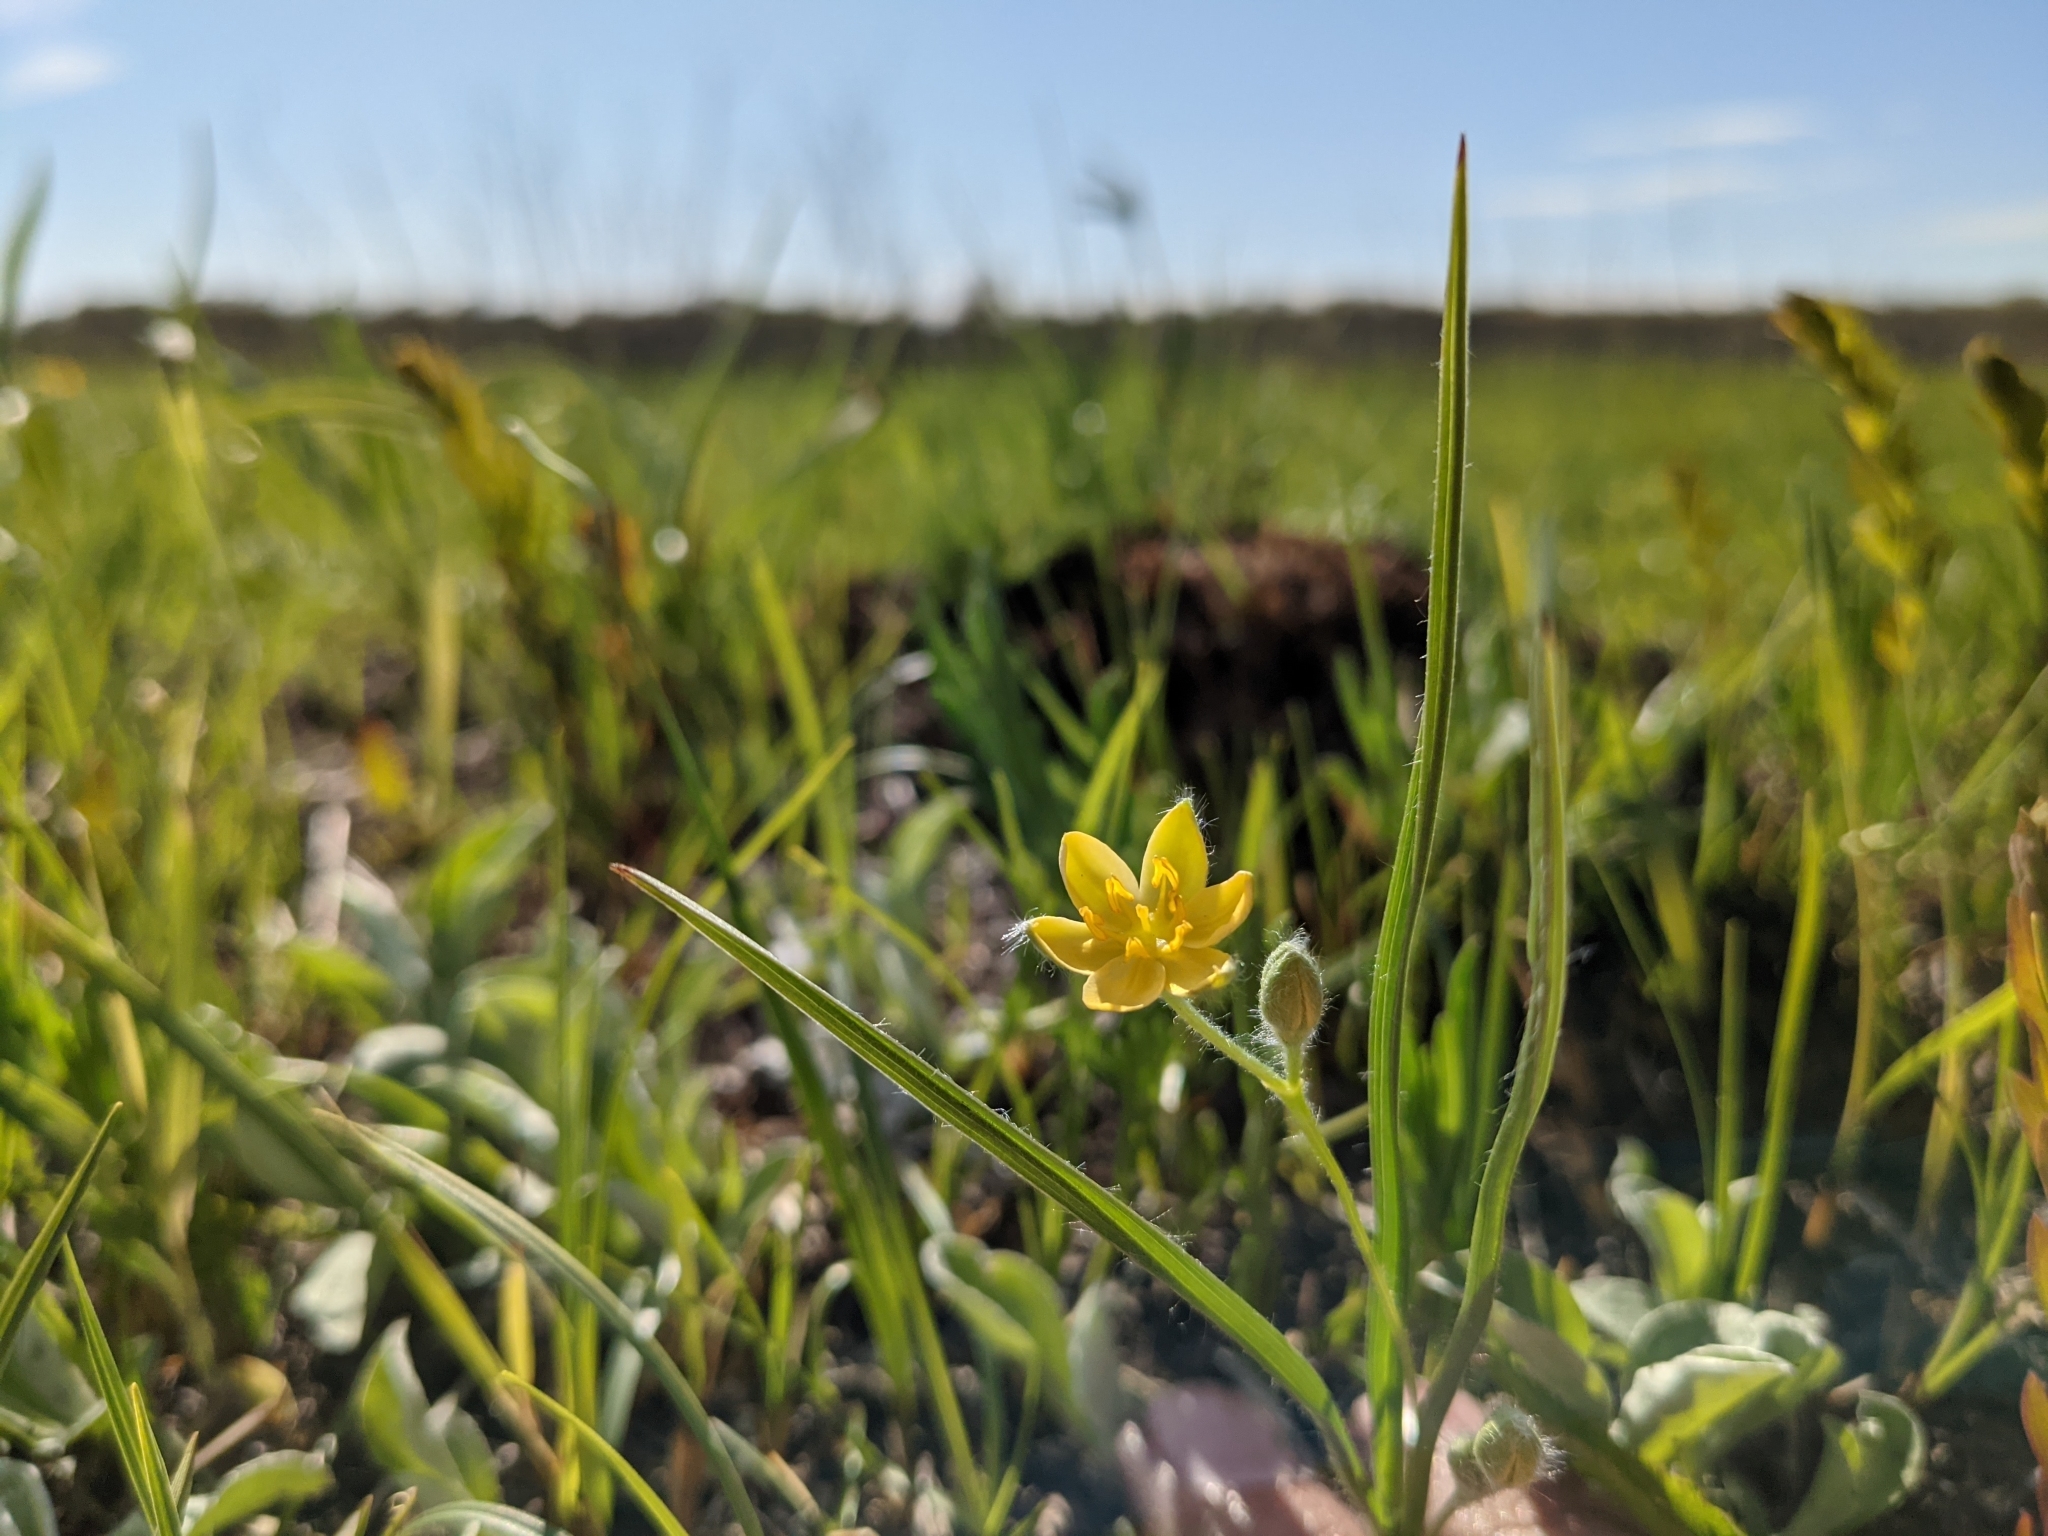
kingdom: Plantae
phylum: Tracheophyta
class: Liliopsida
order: Asparagales
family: Hypoxidaceae
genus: Hypoxis
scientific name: Hypoxis hirsuta
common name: Common goldstar
